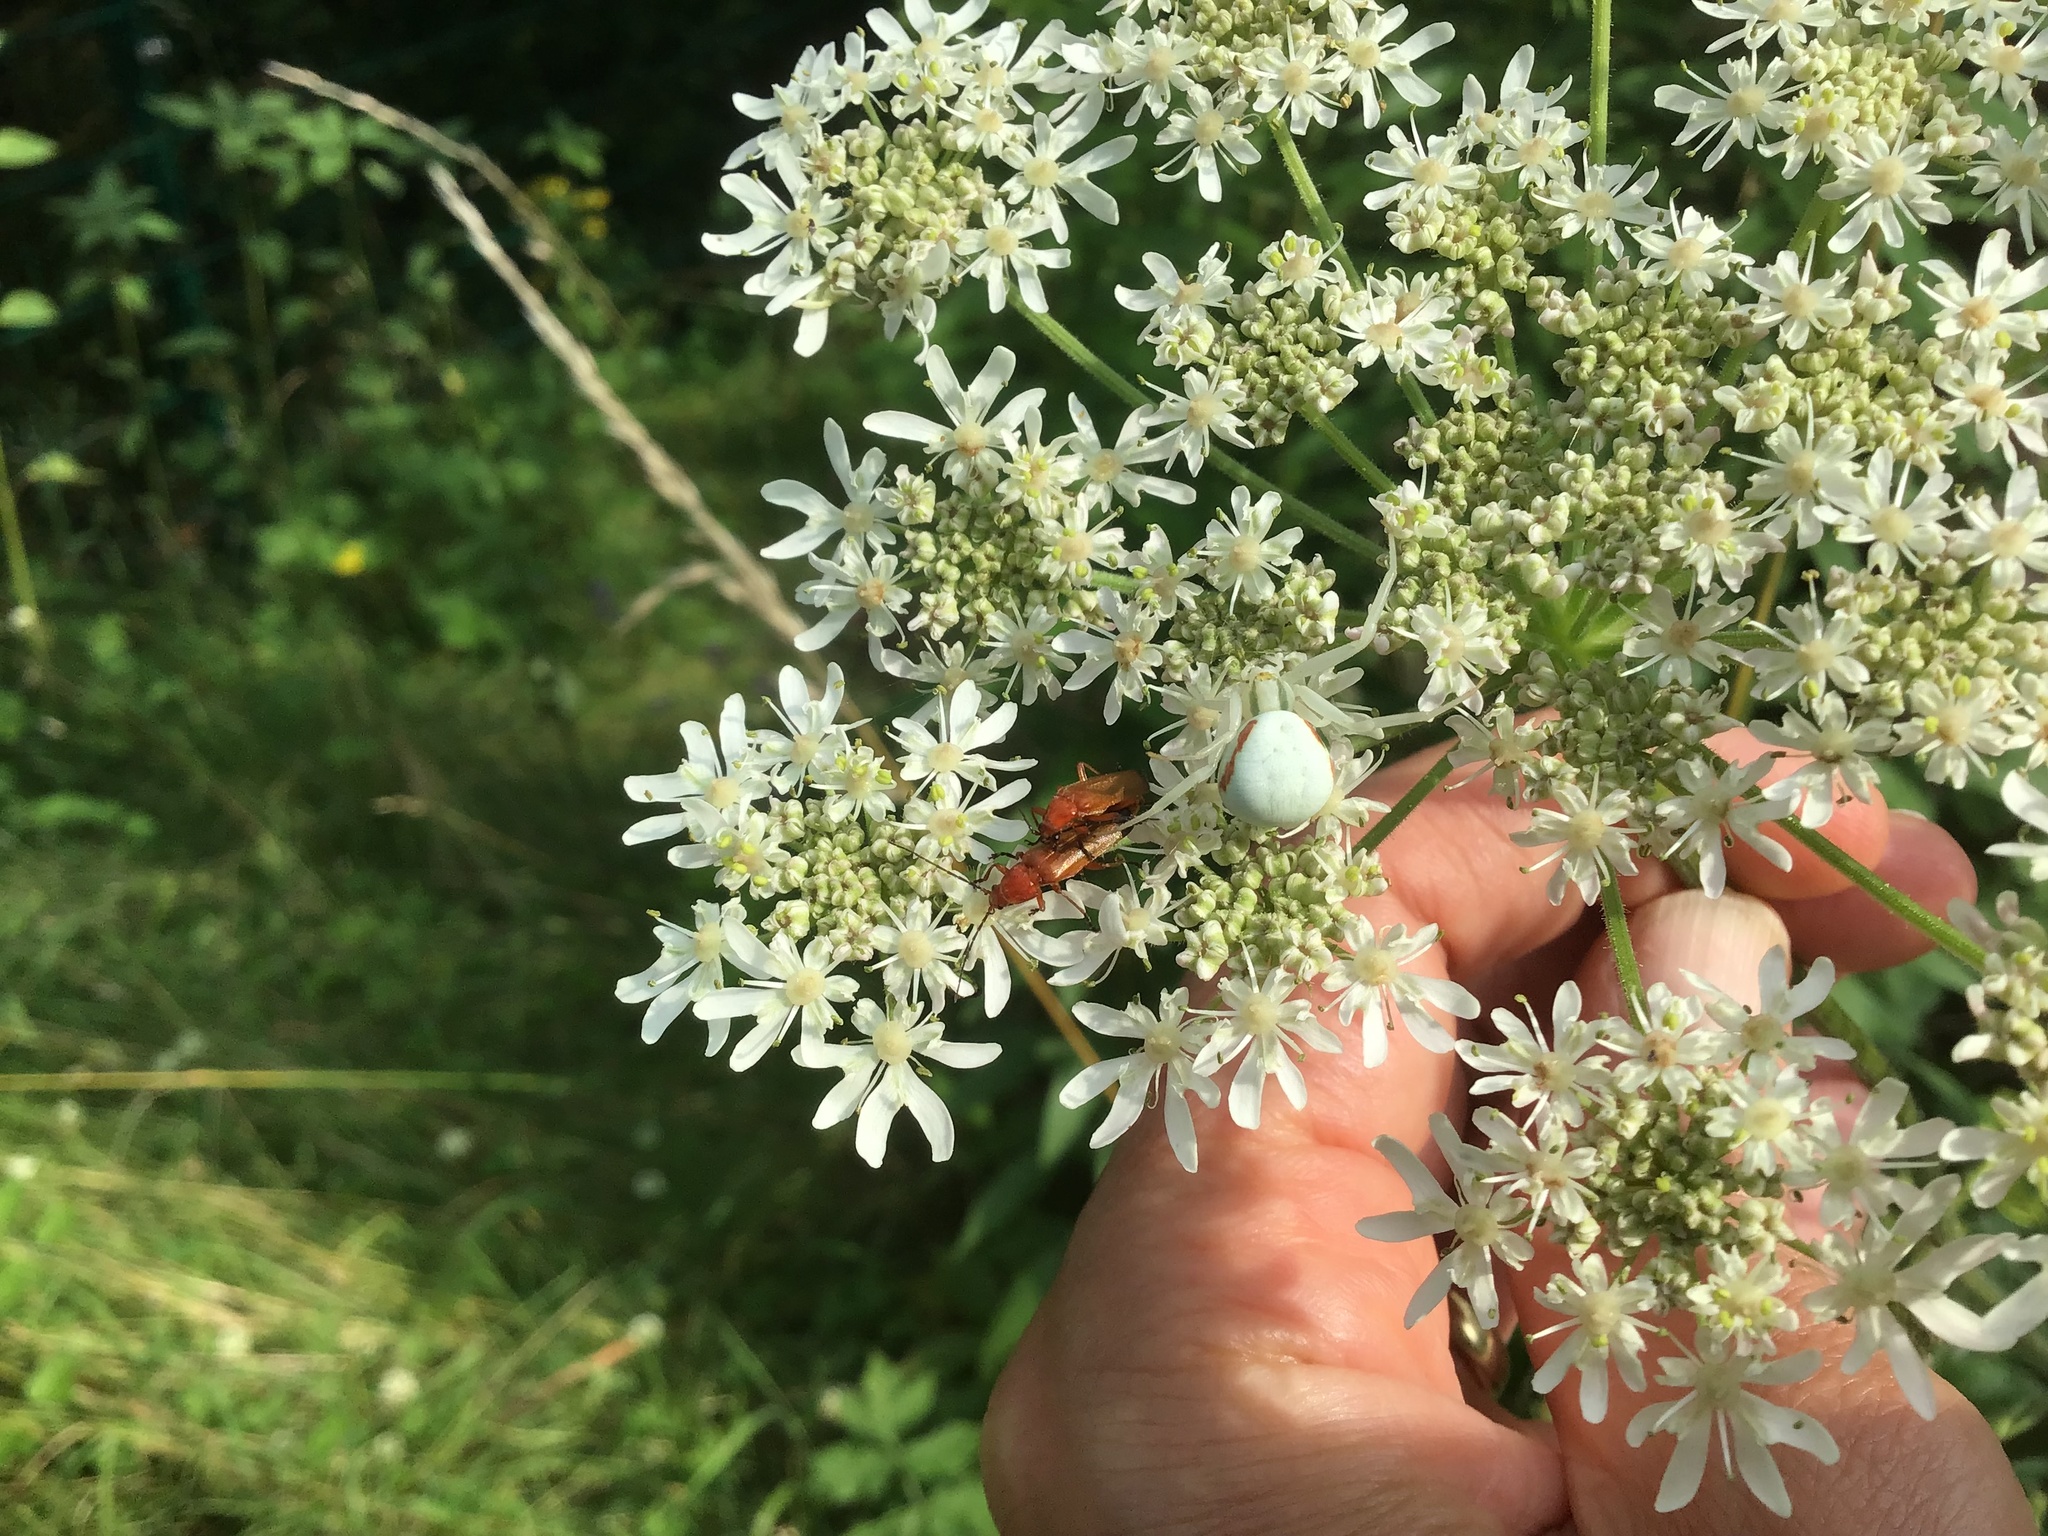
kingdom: Animalia
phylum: Arthropoda
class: Arachnida
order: Araneae
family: Thomisidae
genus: Misumena
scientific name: Misumena vatia
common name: Goldenrod crab spider
